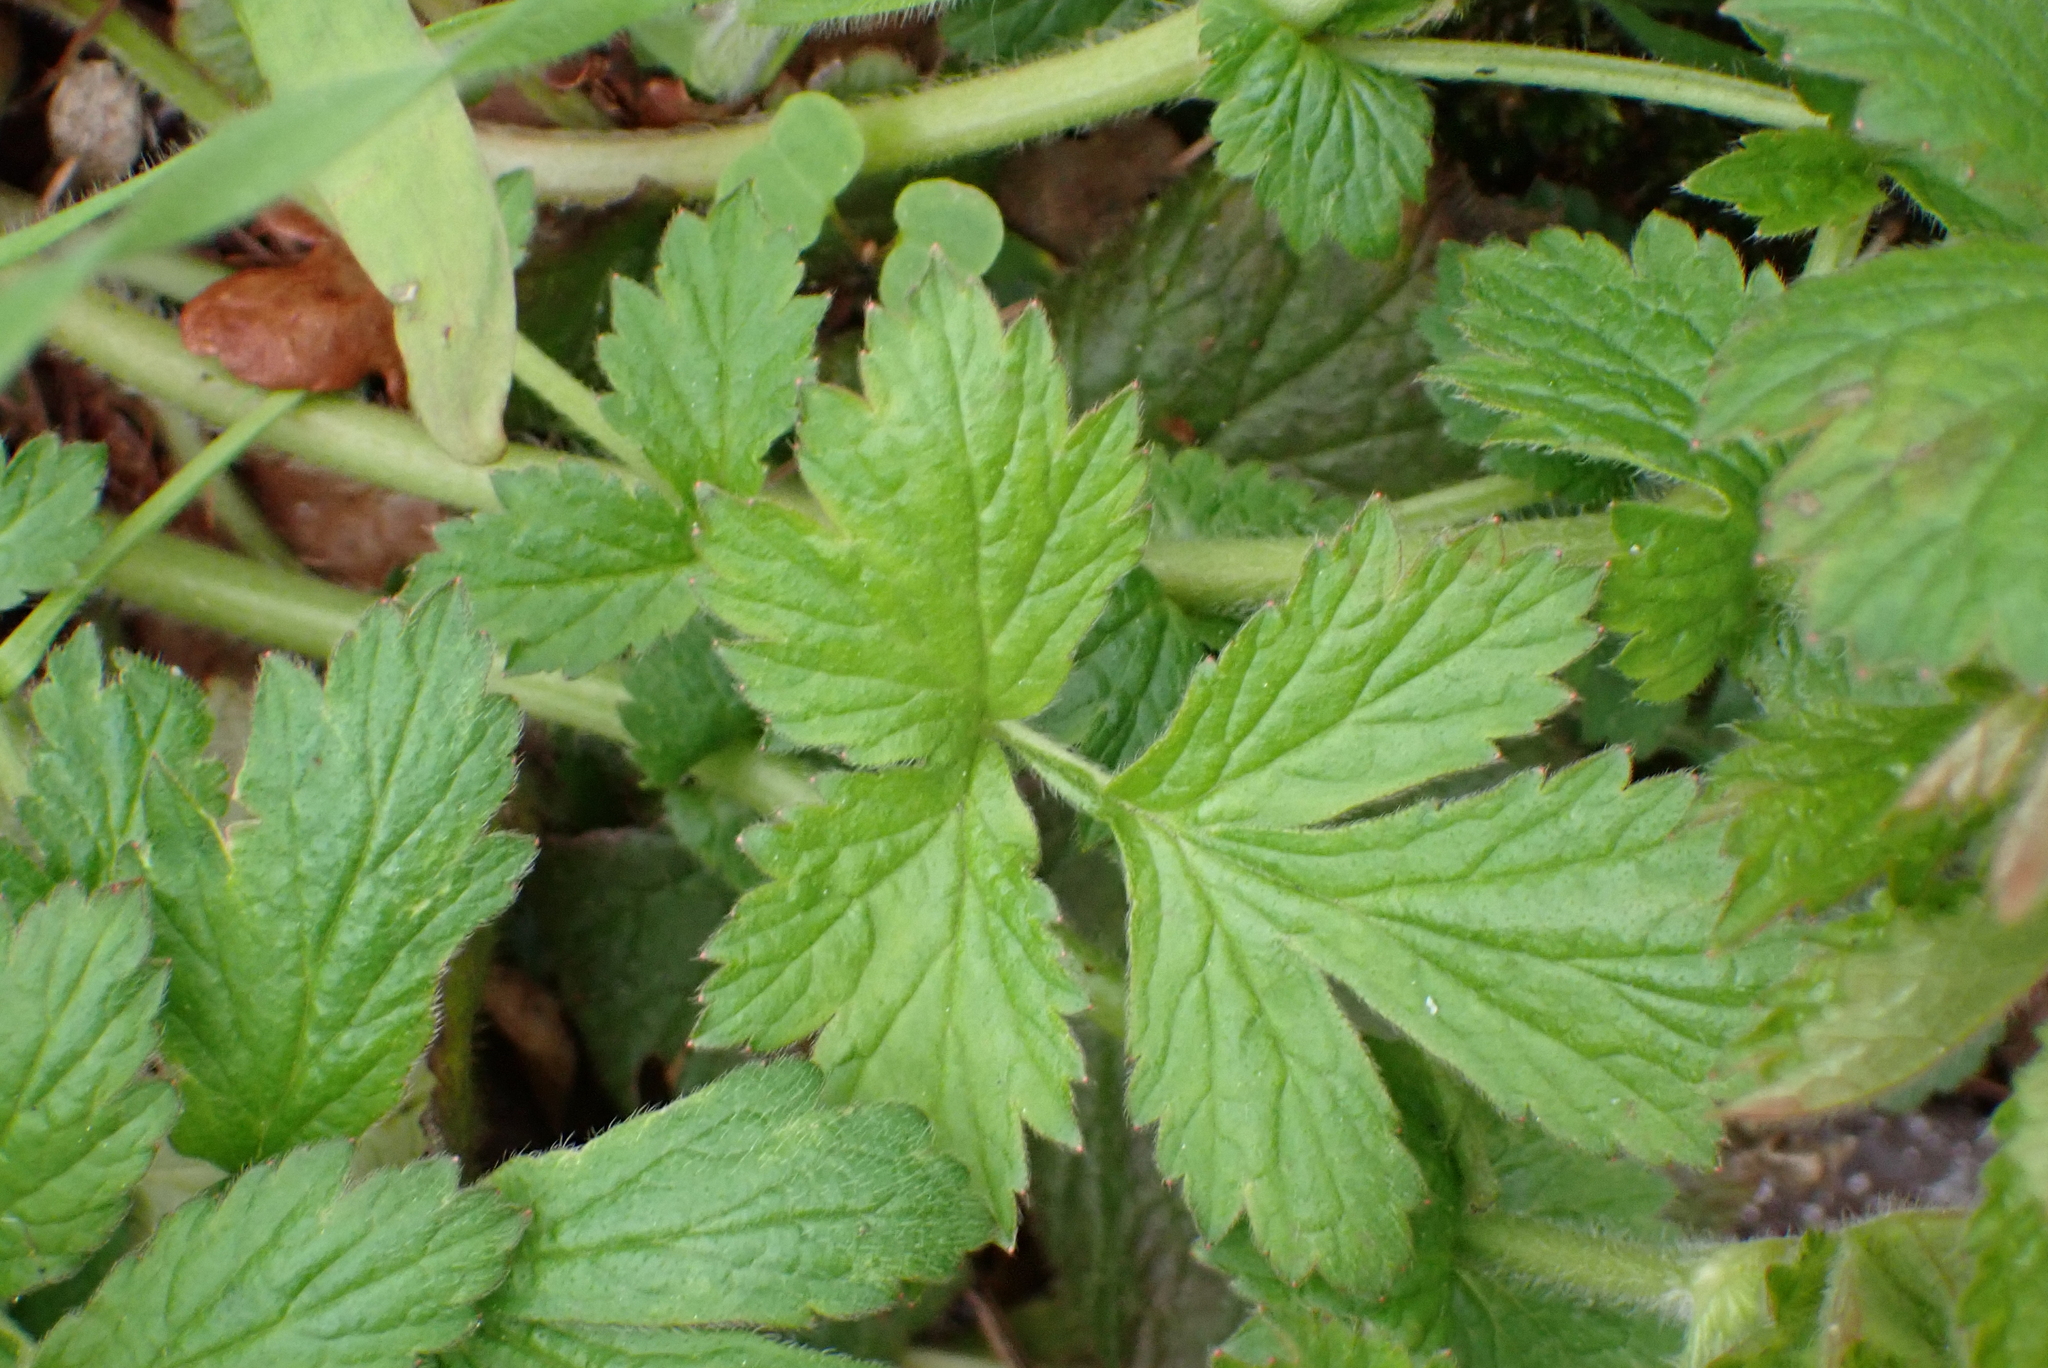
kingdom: Plantae
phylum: Tracheophyta
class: Magnoliopsida
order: Rosales
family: Rosaceae
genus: Geum
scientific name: Geum urbanum
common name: Wood avens
